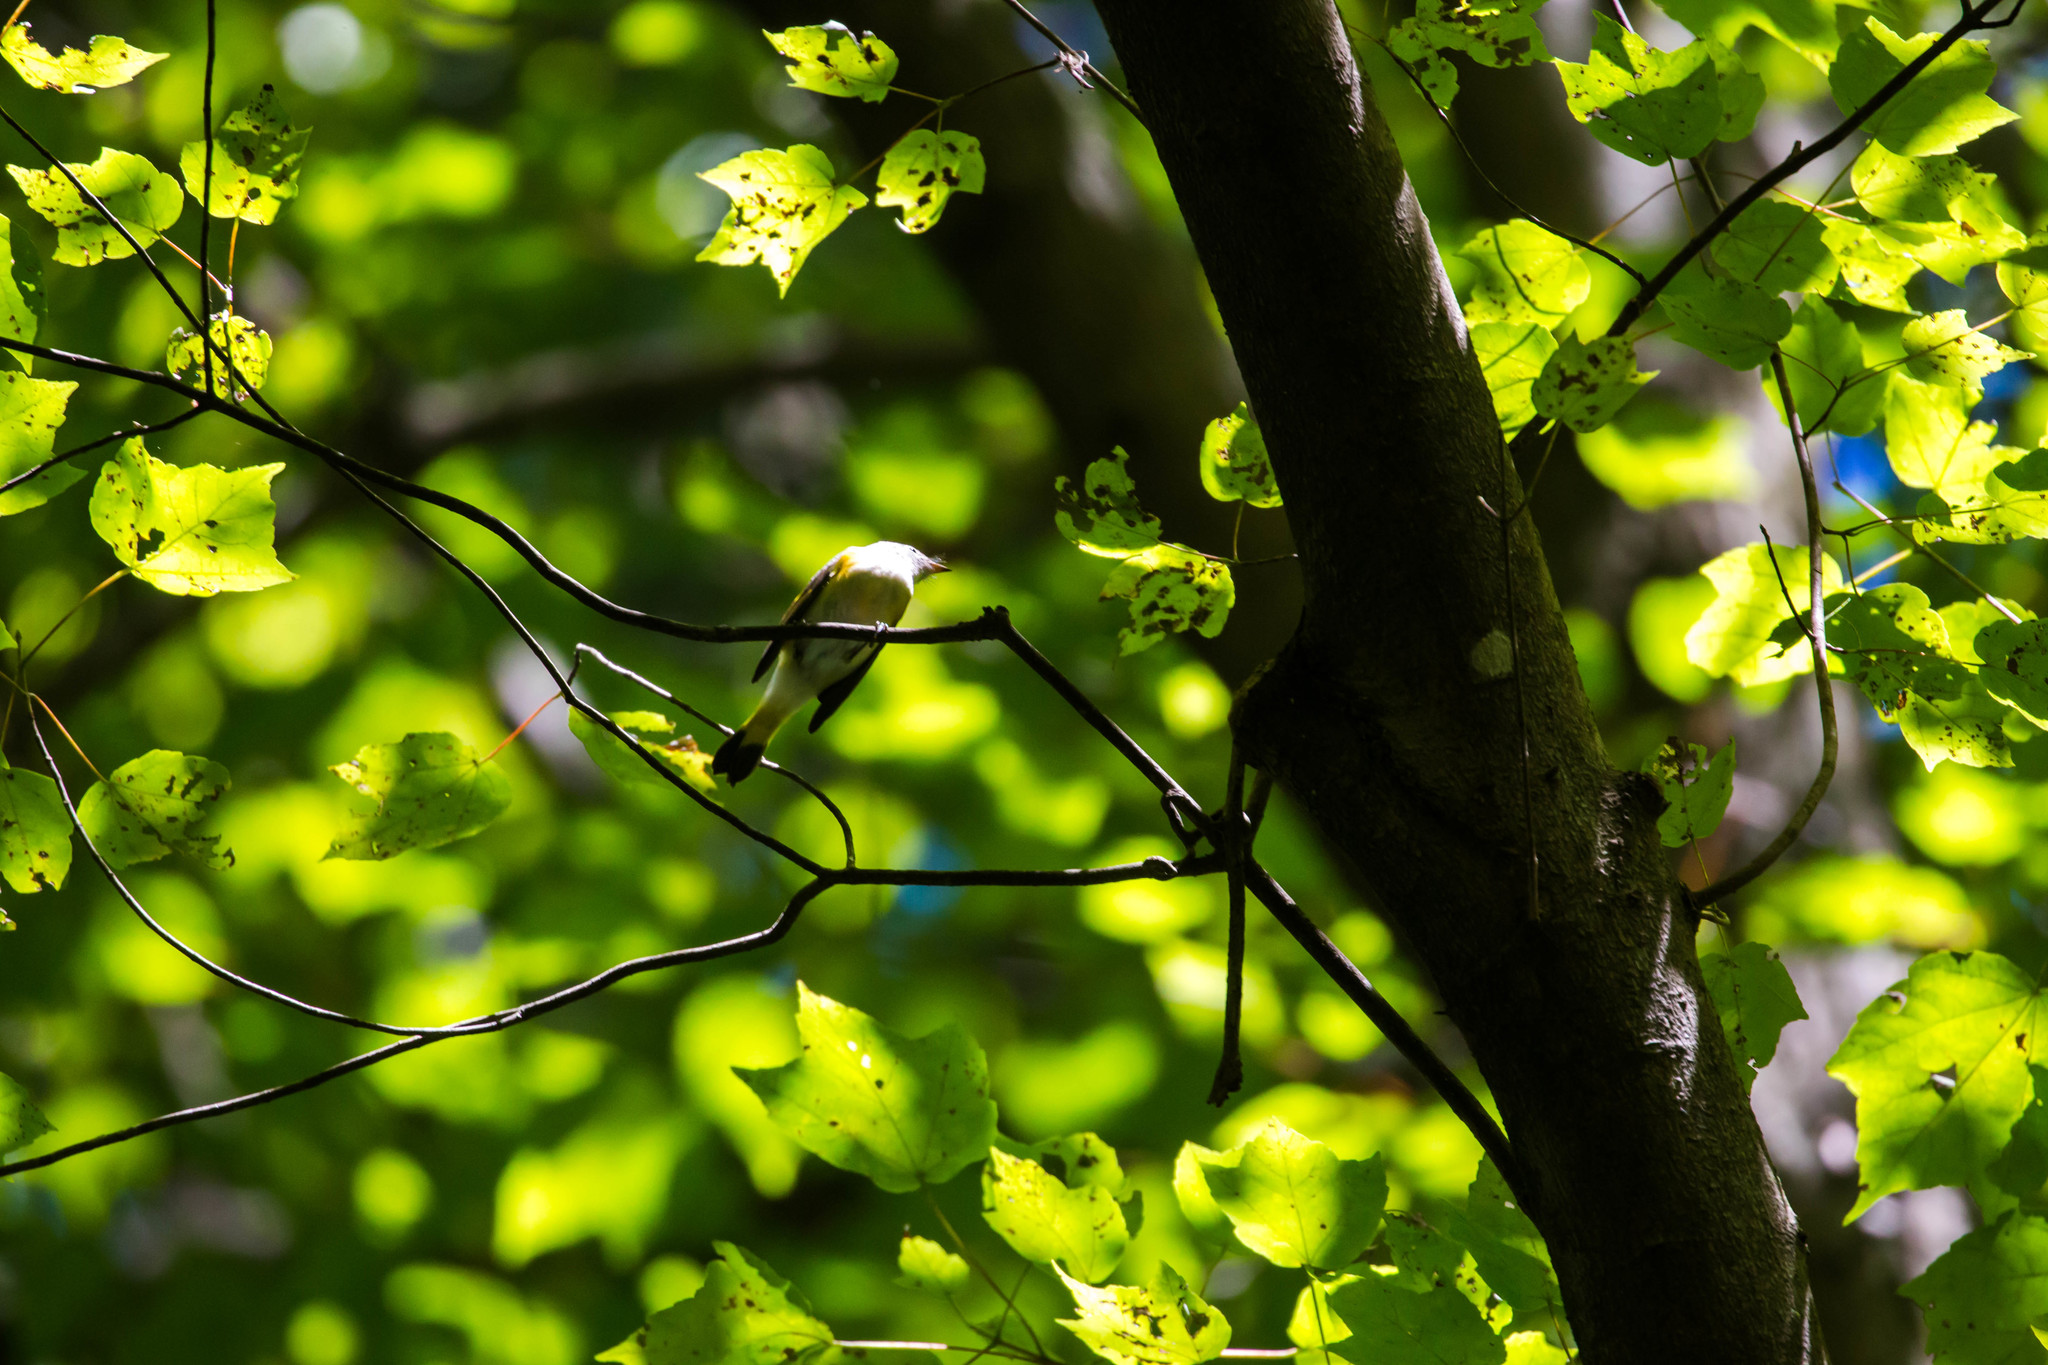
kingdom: Animalia
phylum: Chordata
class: Aves
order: Passeriformes
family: Parulidae
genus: Setophaga
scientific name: Setophaga ruticilla
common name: American redstart
